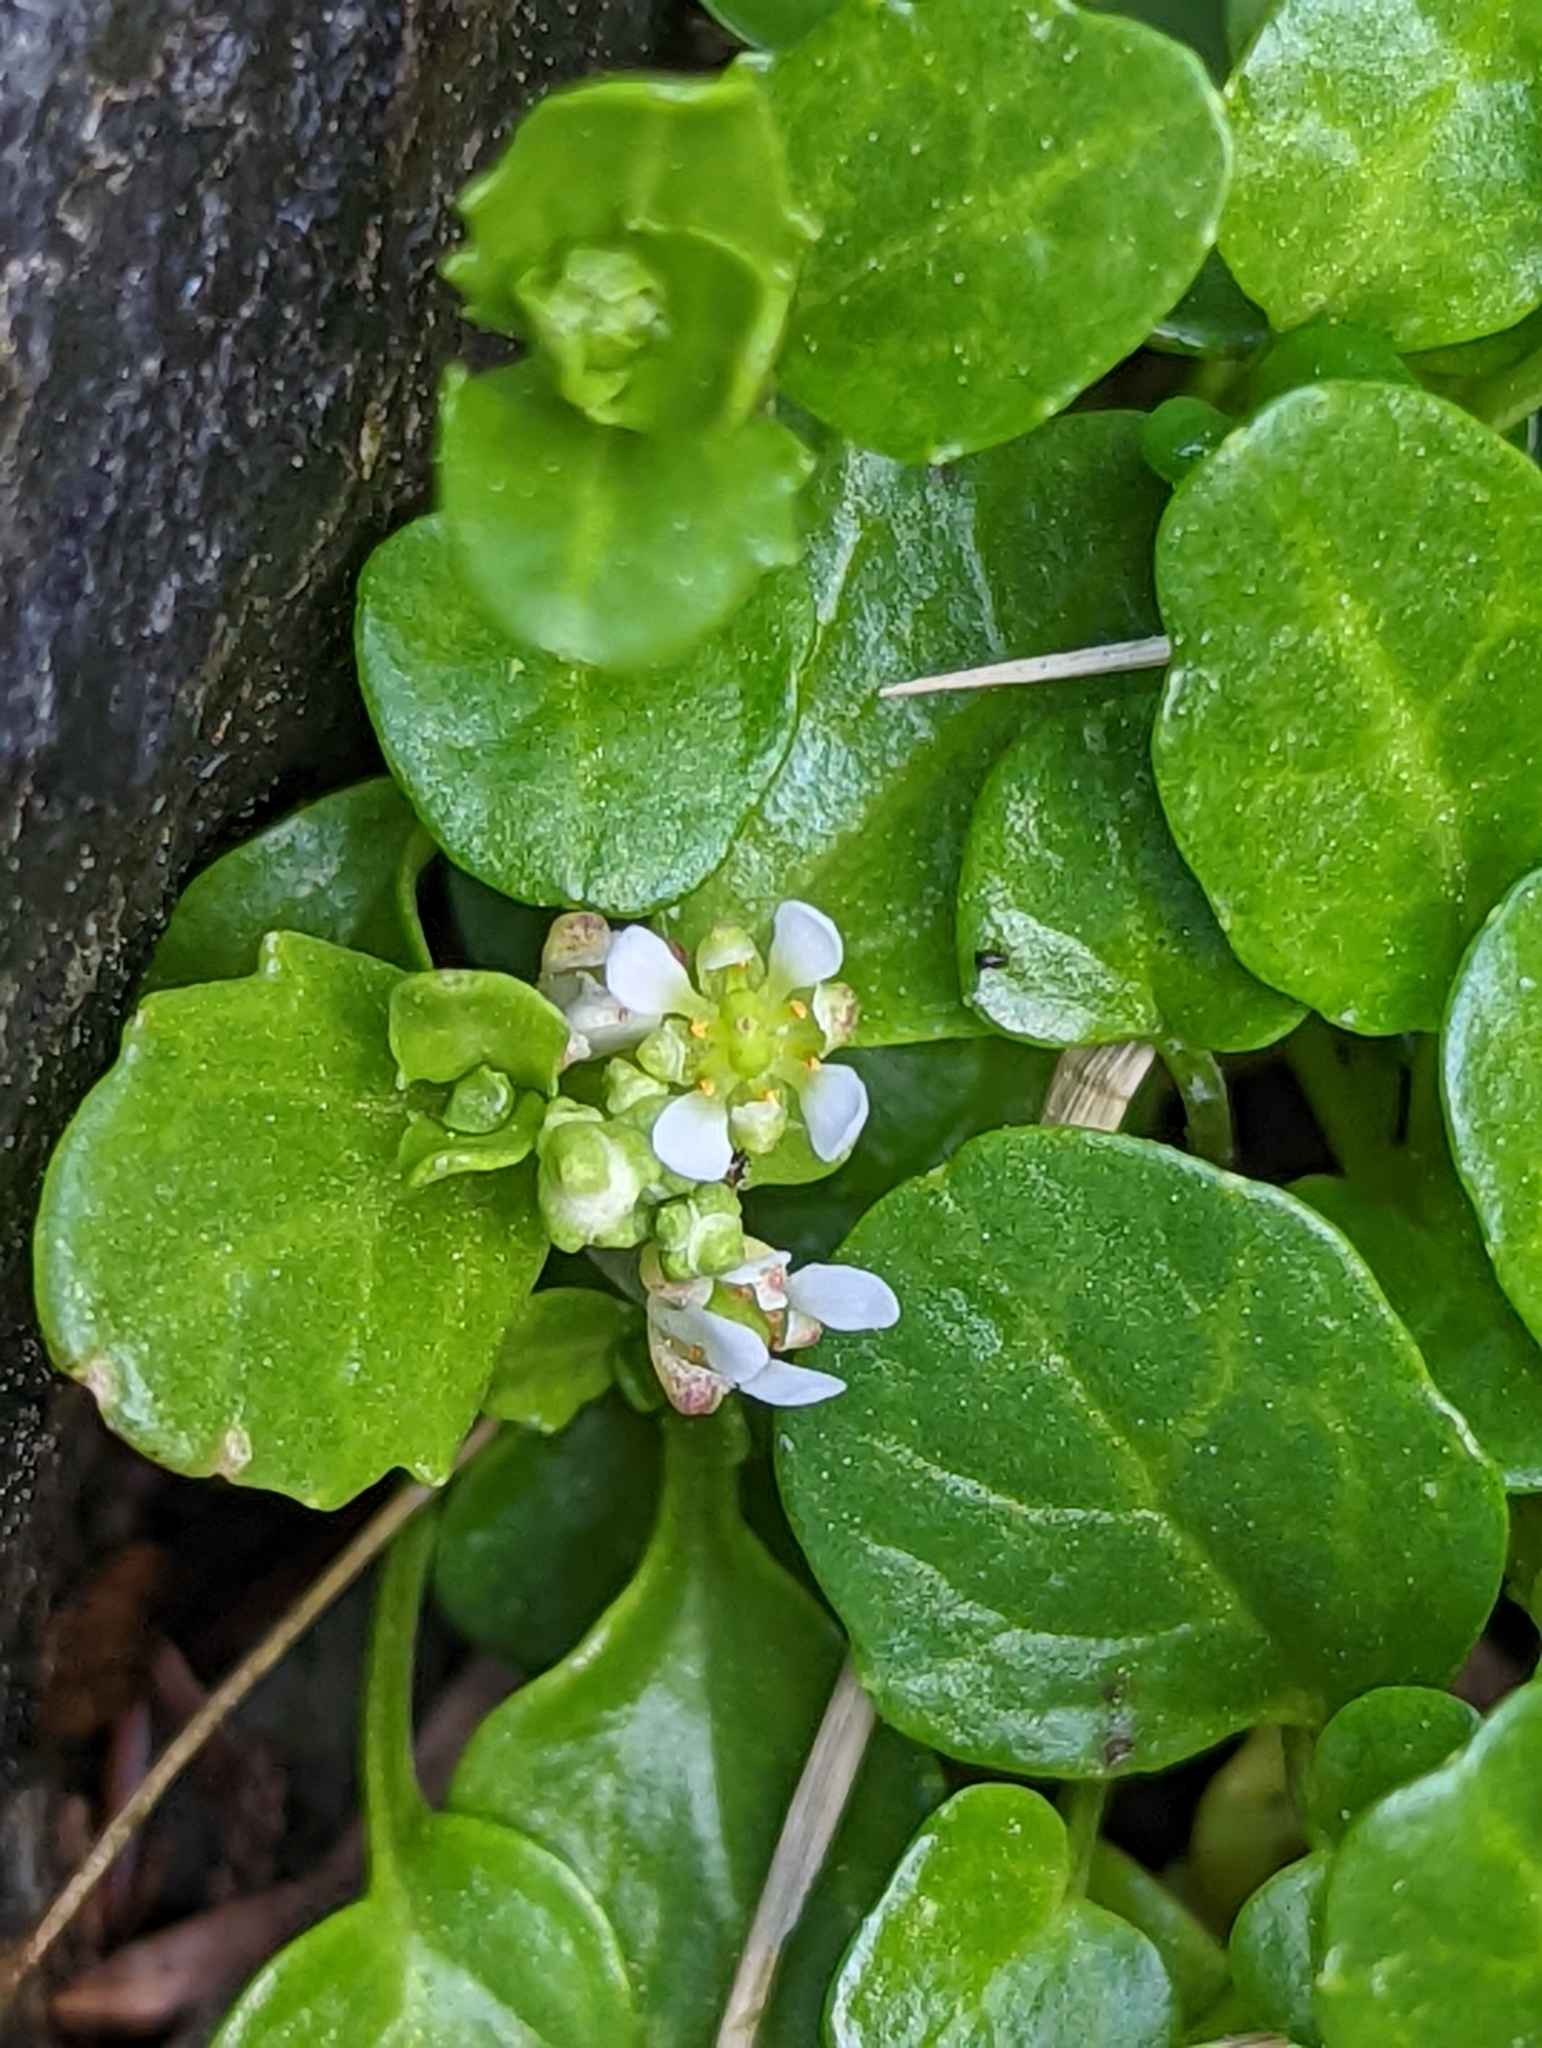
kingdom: Plantae
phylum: Tracheophyta
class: Magnoliopsida
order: Brassicales
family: Brassicaceae
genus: Cochlearia
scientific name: Cochlearia groenlandica
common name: Danish scurvygrass
